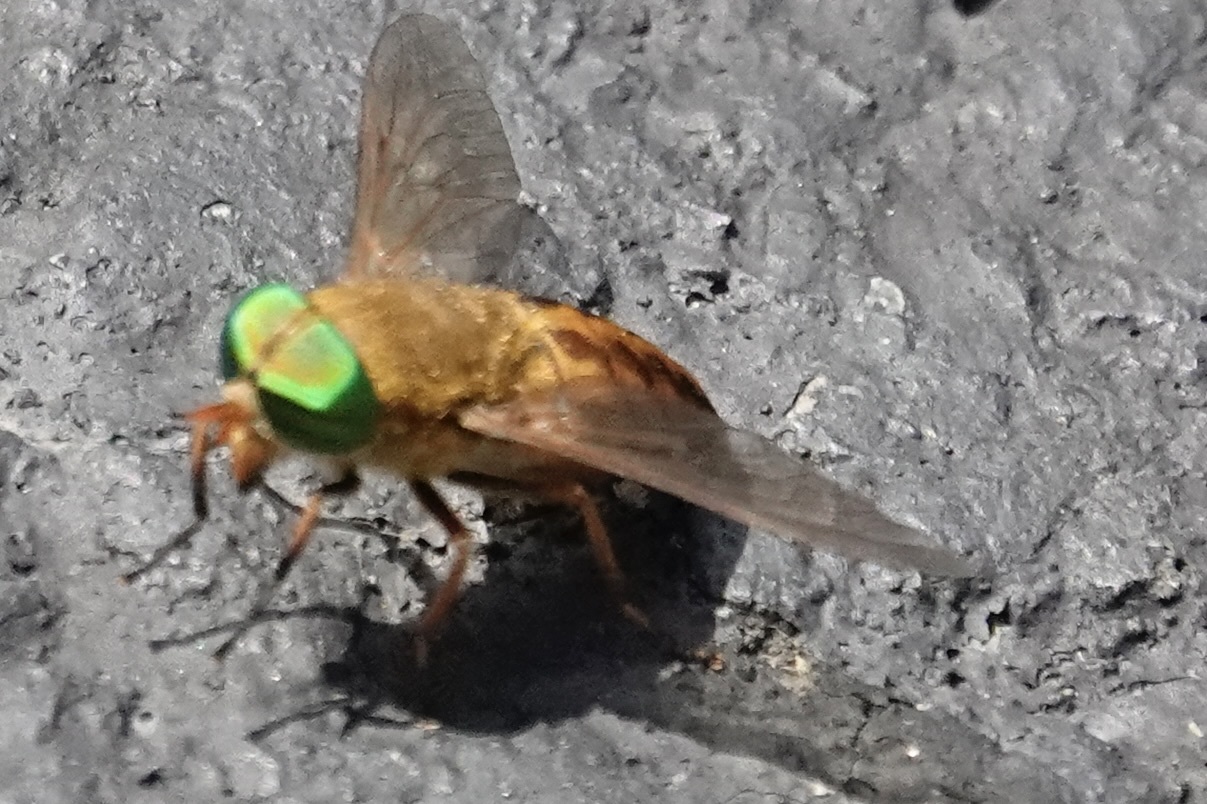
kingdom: Animalia
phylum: Arthropoda
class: Insecta
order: Diptera
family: Tabanidae
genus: Tabanus
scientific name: Tabanus fulvulus
